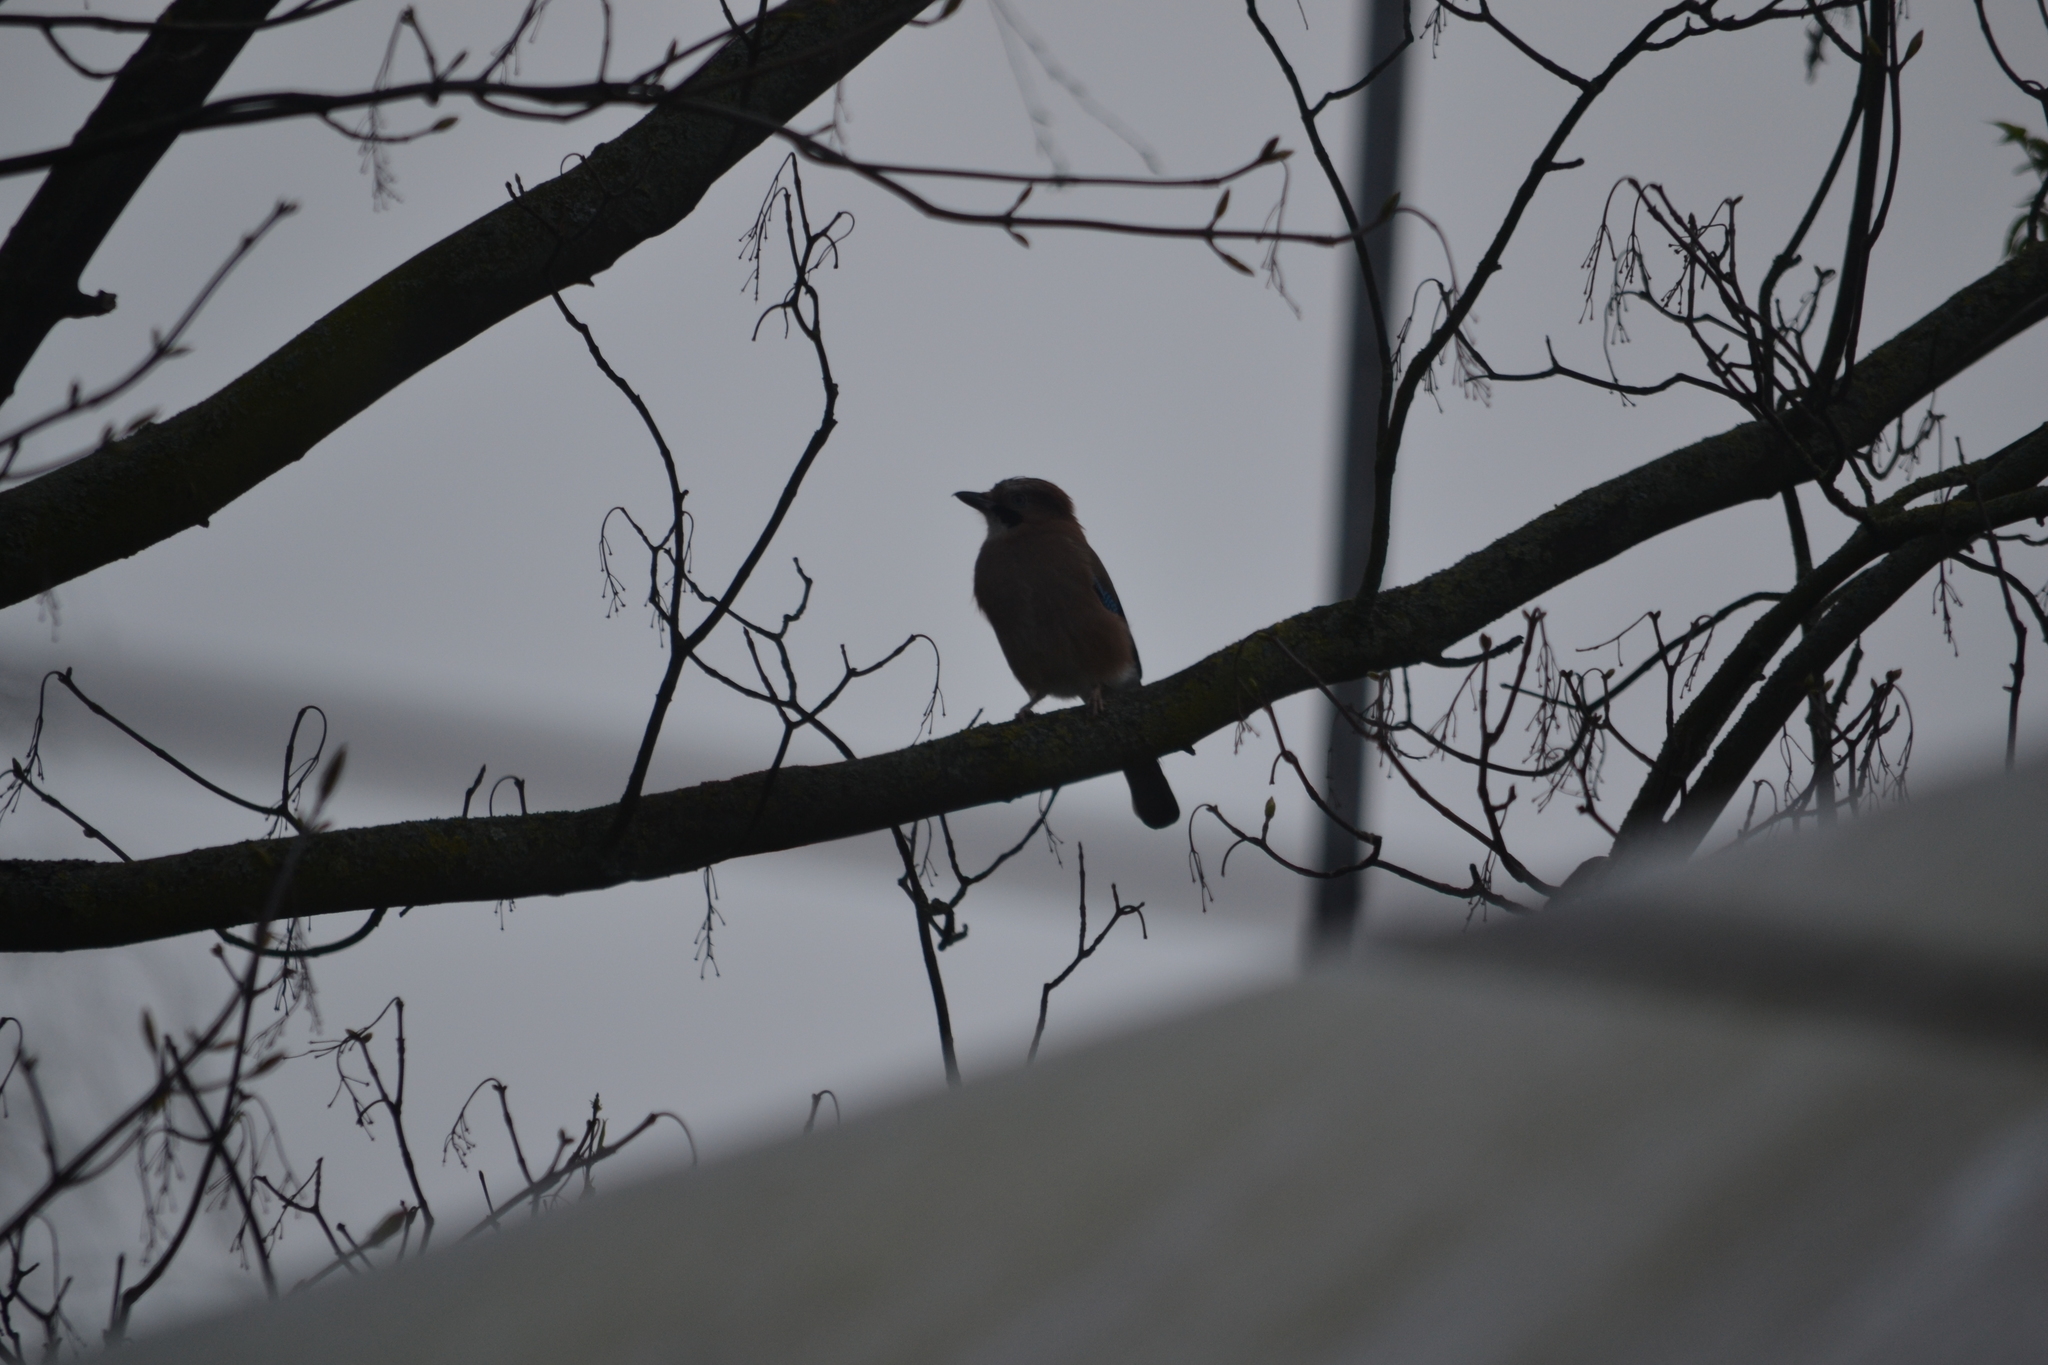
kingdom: Animalia
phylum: Chordata
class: Aves
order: Passeriformes
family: Corvidae
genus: Garrulus
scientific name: Garrulus glandarius
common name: Eurasian jay
